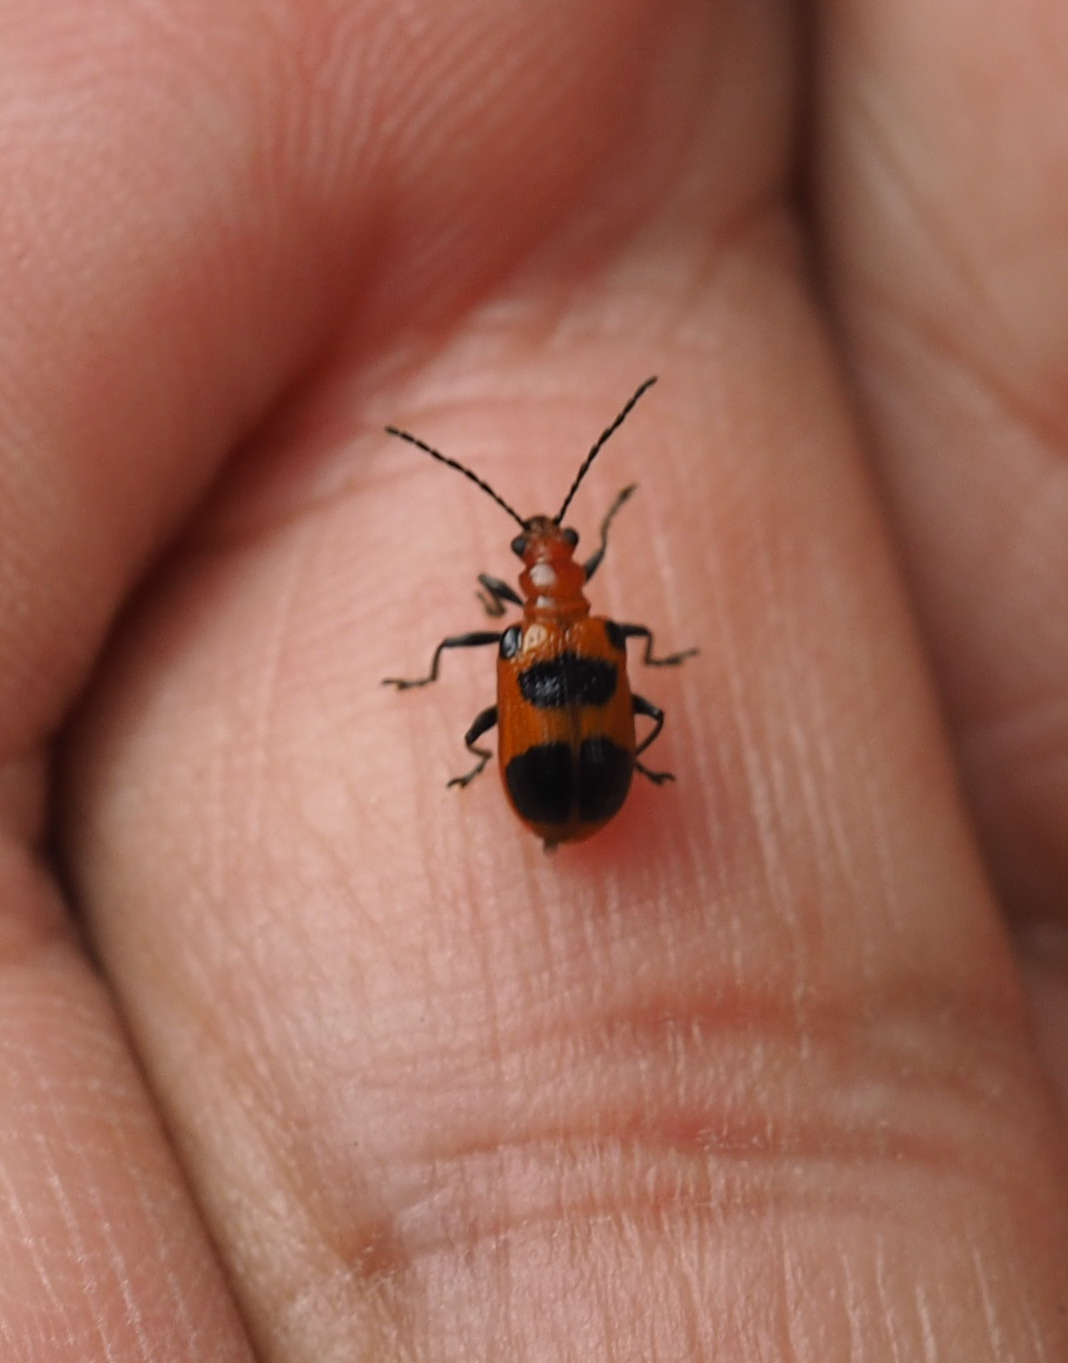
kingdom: Animalia
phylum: Arthropoda
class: Insecta
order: Coleoptera
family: Chrysomelidae
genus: Neolema
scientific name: Neolema sexpunctata
